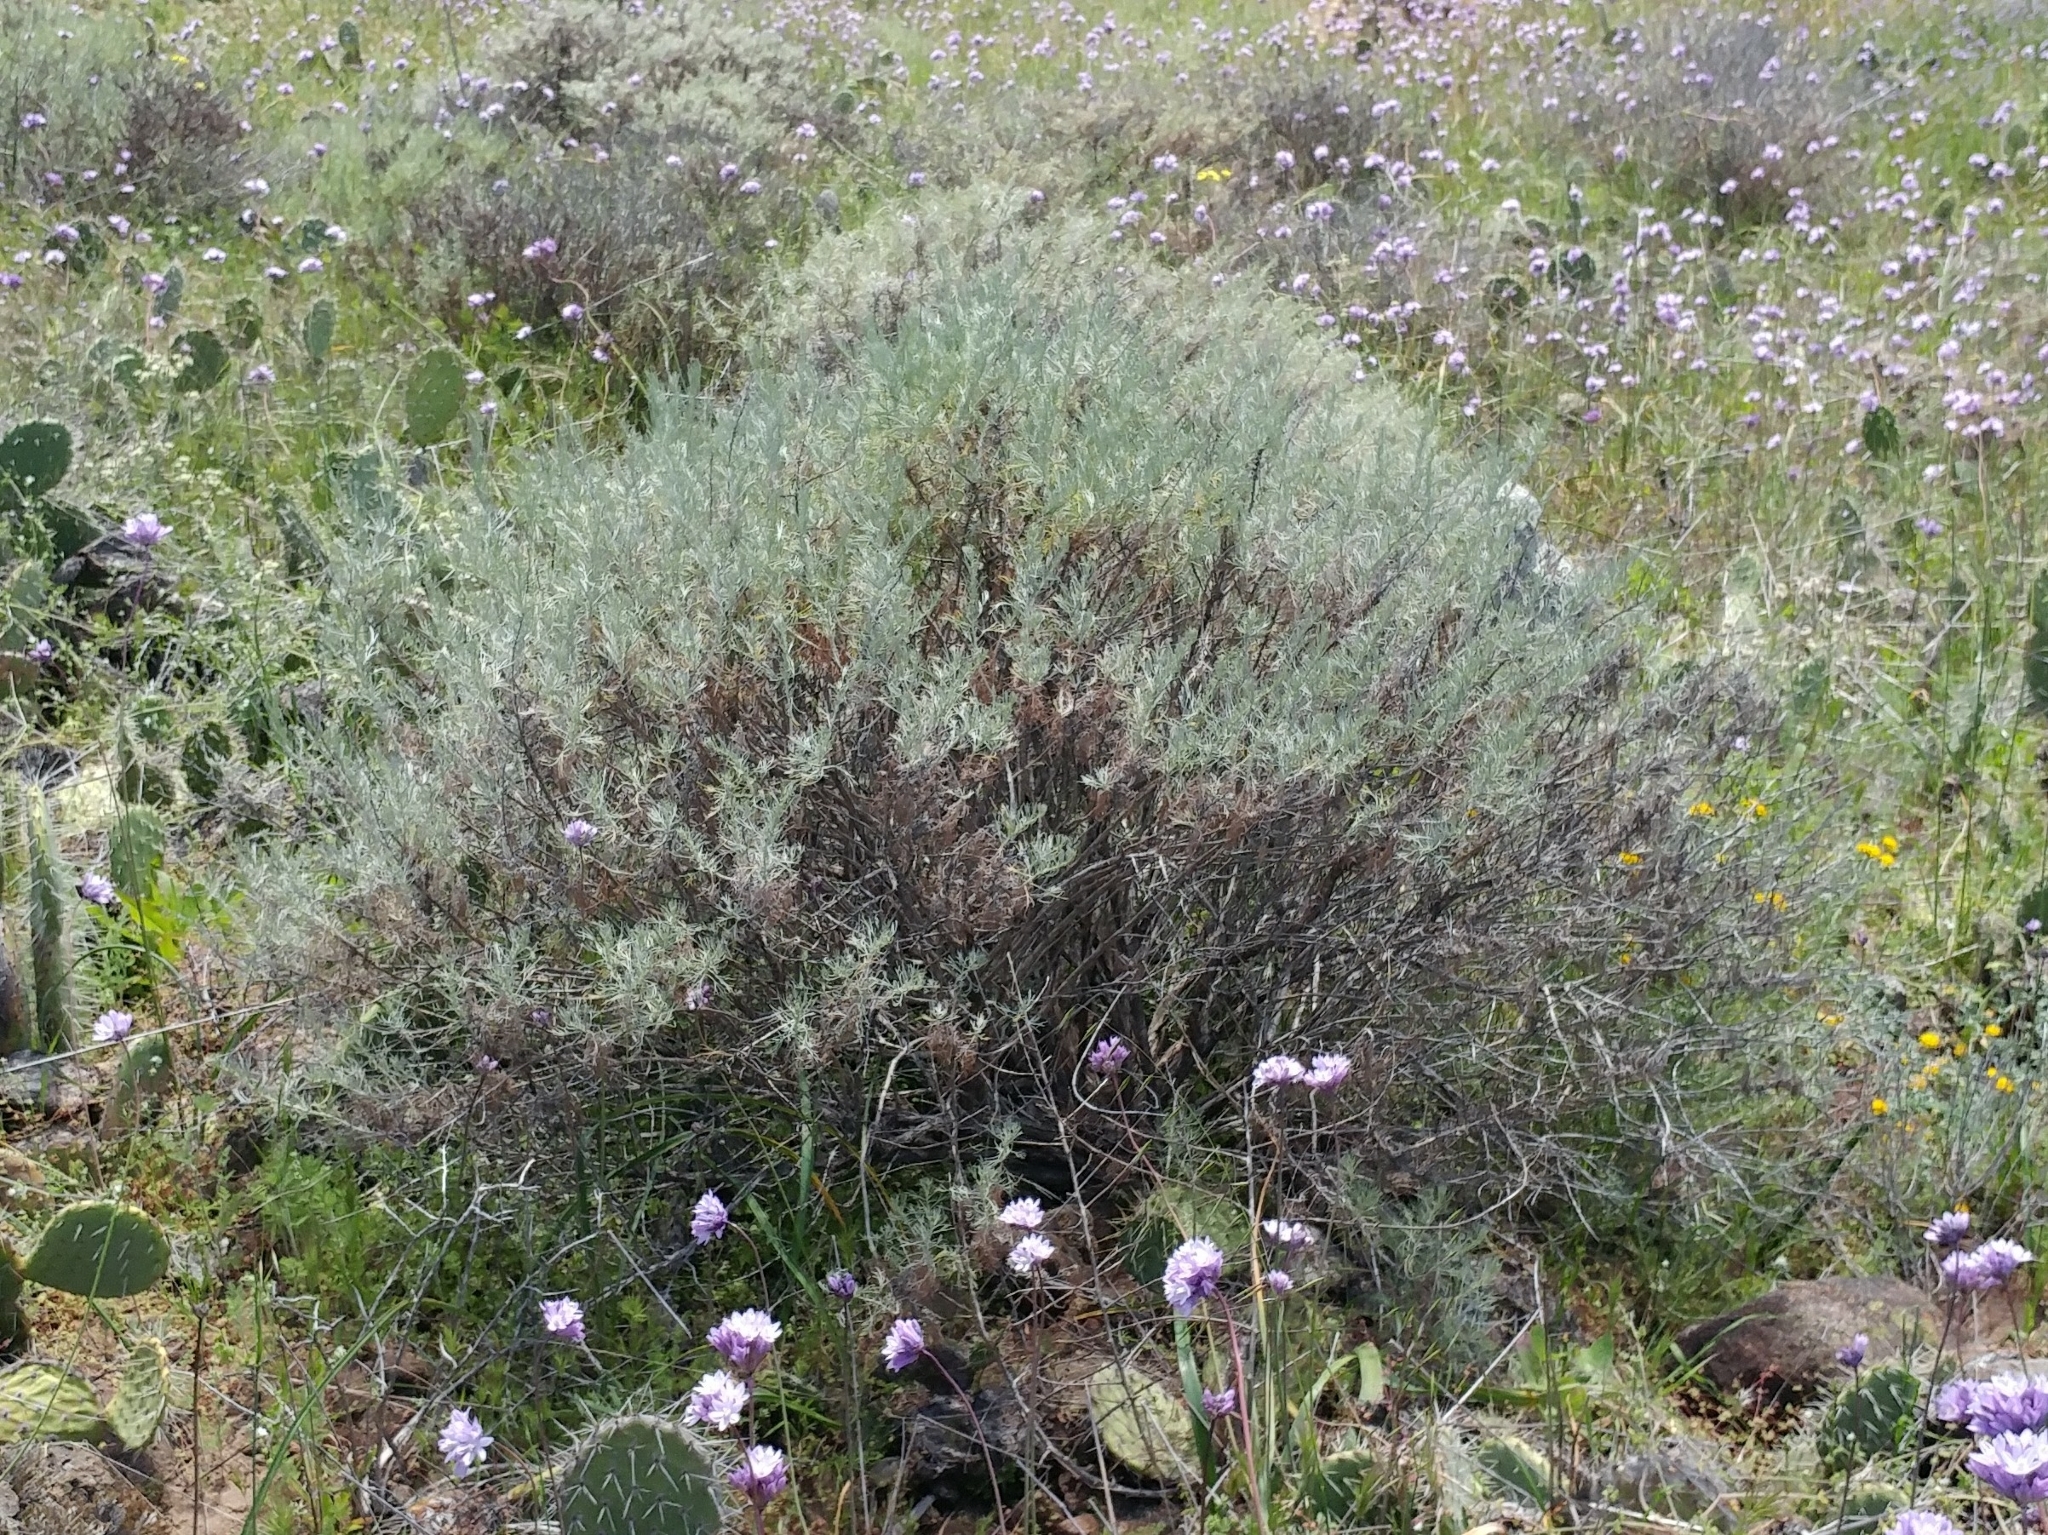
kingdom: Plantae
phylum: Tracheophyta
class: Magnoliopsida
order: Asterales
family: Asteraceae
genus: Artemisia
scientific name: Artemisia californica
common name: California sagebrush
